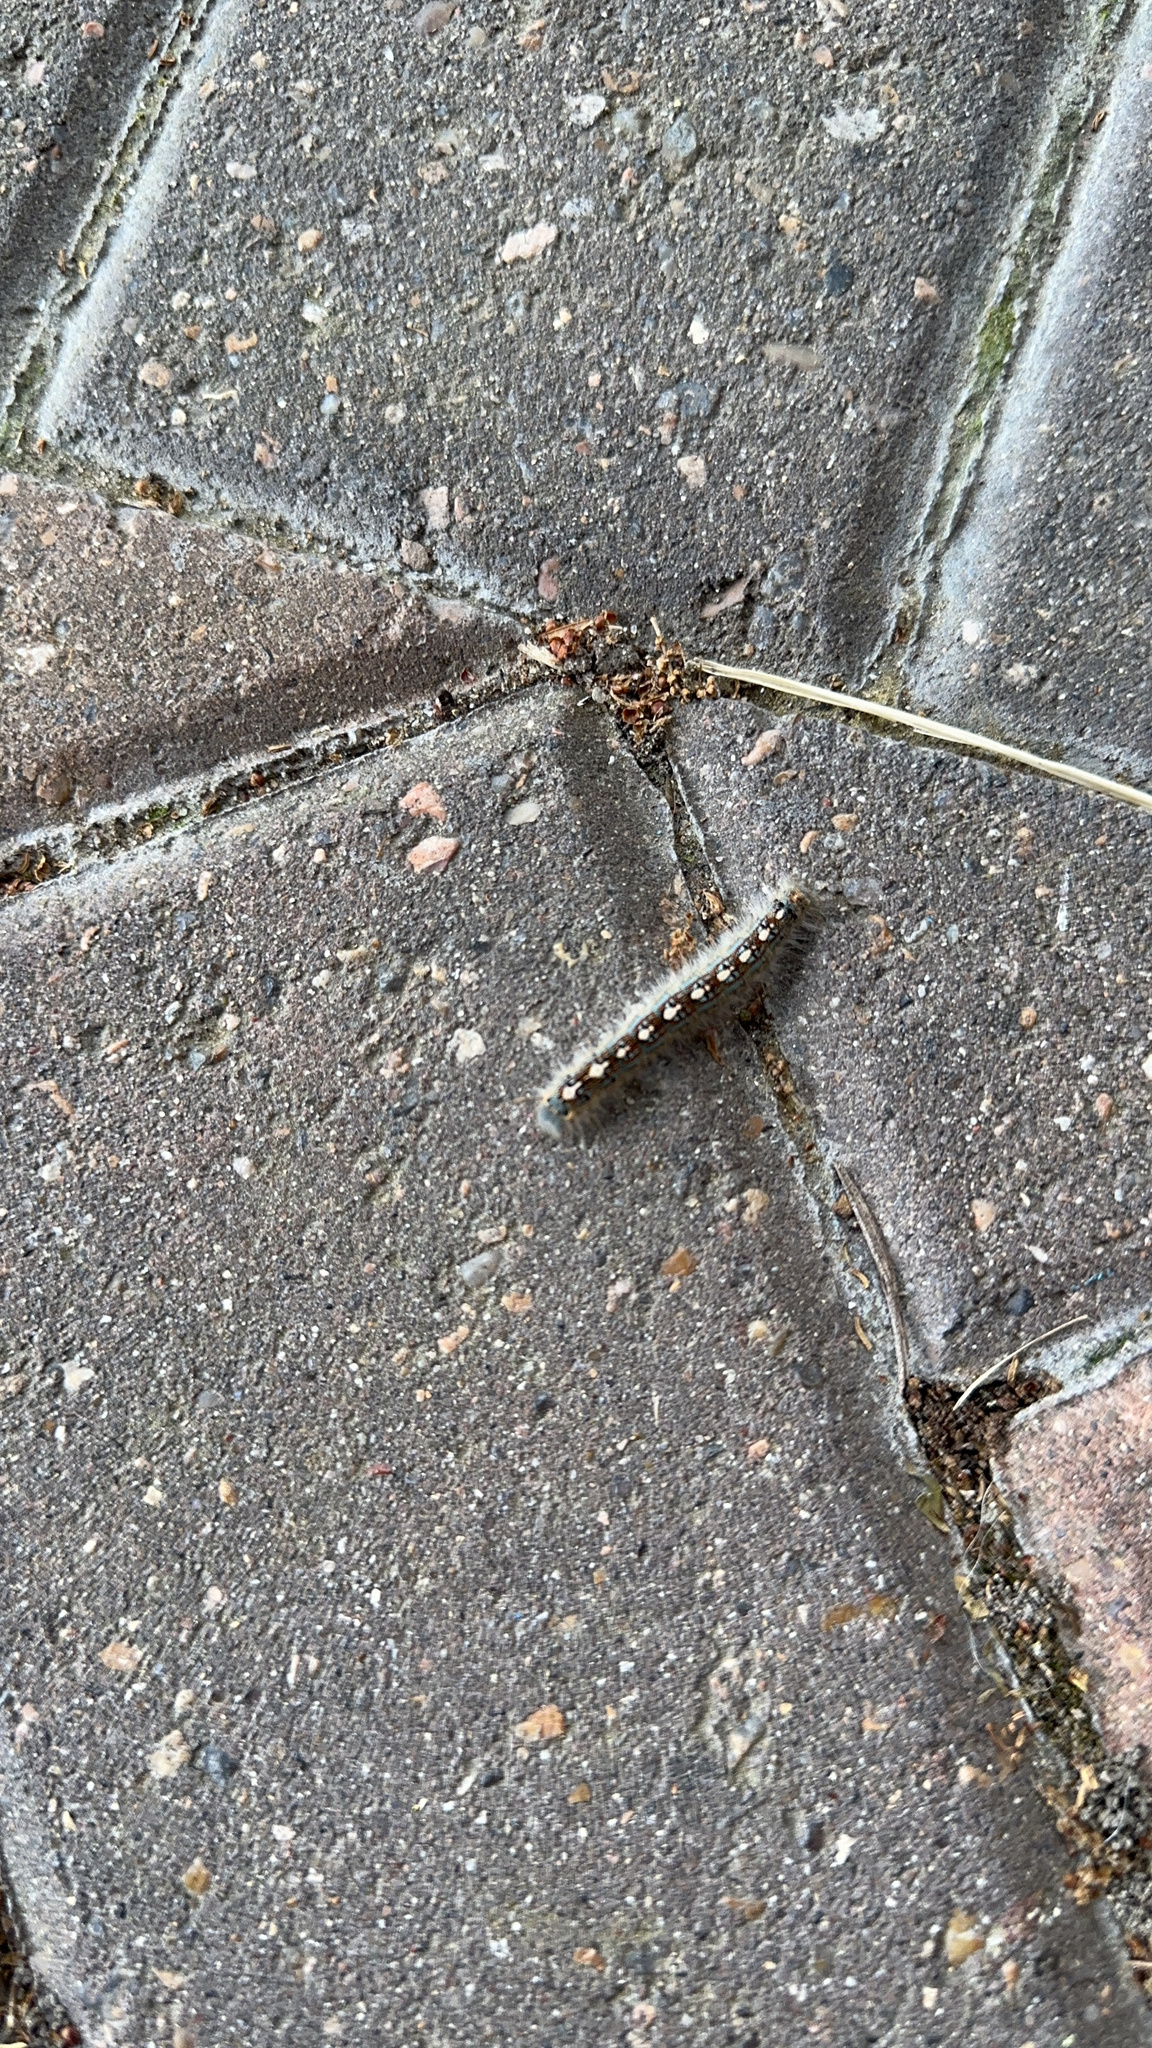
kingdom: Animalia
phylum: Arthropoda
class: Insecta
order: Lepidoptera
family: Lasiocampidae
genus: Malacosoma
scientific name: Malacosoma disstria
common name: Forest tent caterpillar
